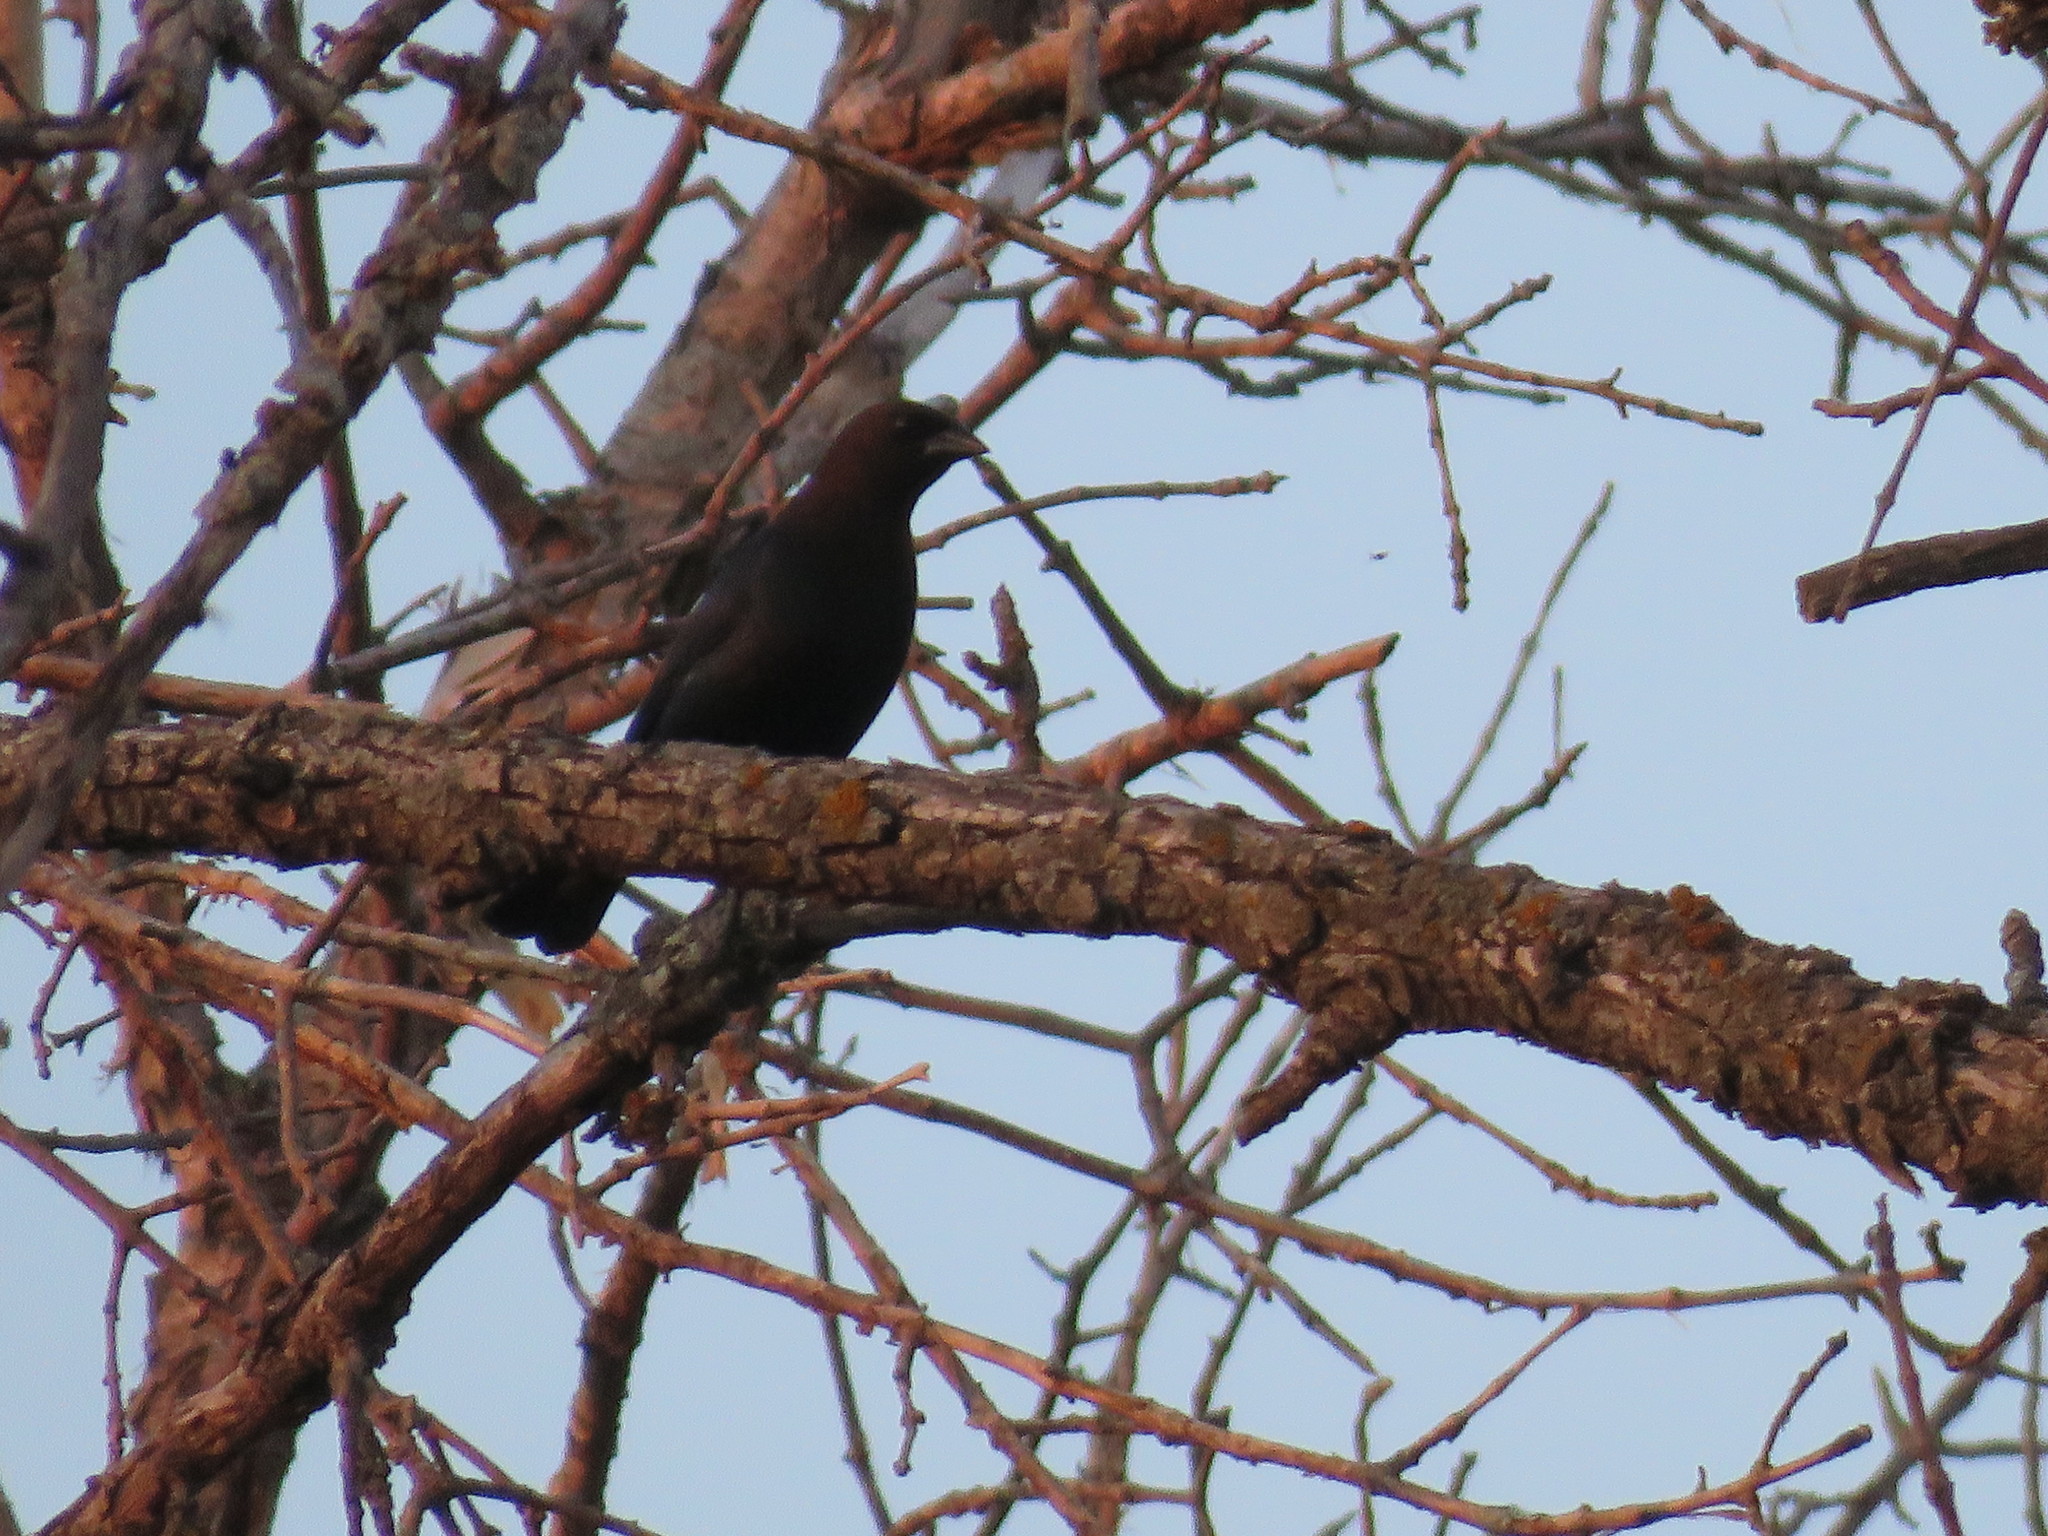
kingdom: Animalia
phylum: Chordata
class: Aves
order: Passeriformes
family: Icteridae
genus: Molothrus
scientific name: Molothrus ater
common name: Brown-headed cowbird
